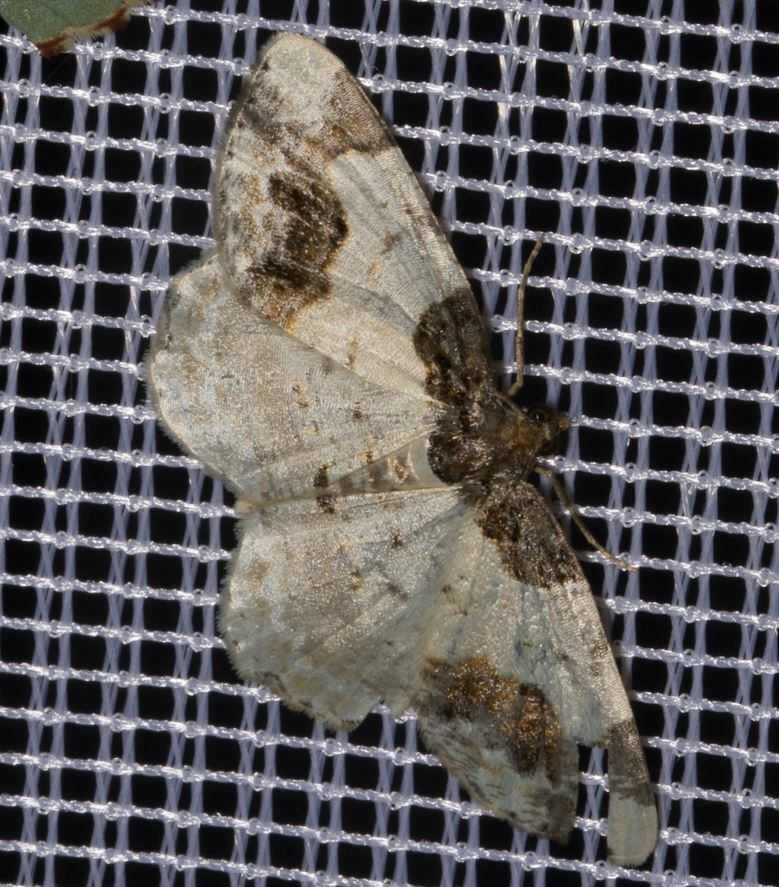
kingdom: Animalia
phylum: Arthropoda
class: Insecta
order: Lepidoptera
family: Geometridae
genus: Ligdia
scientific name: Ligdia adustata
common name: Scorched carpet
